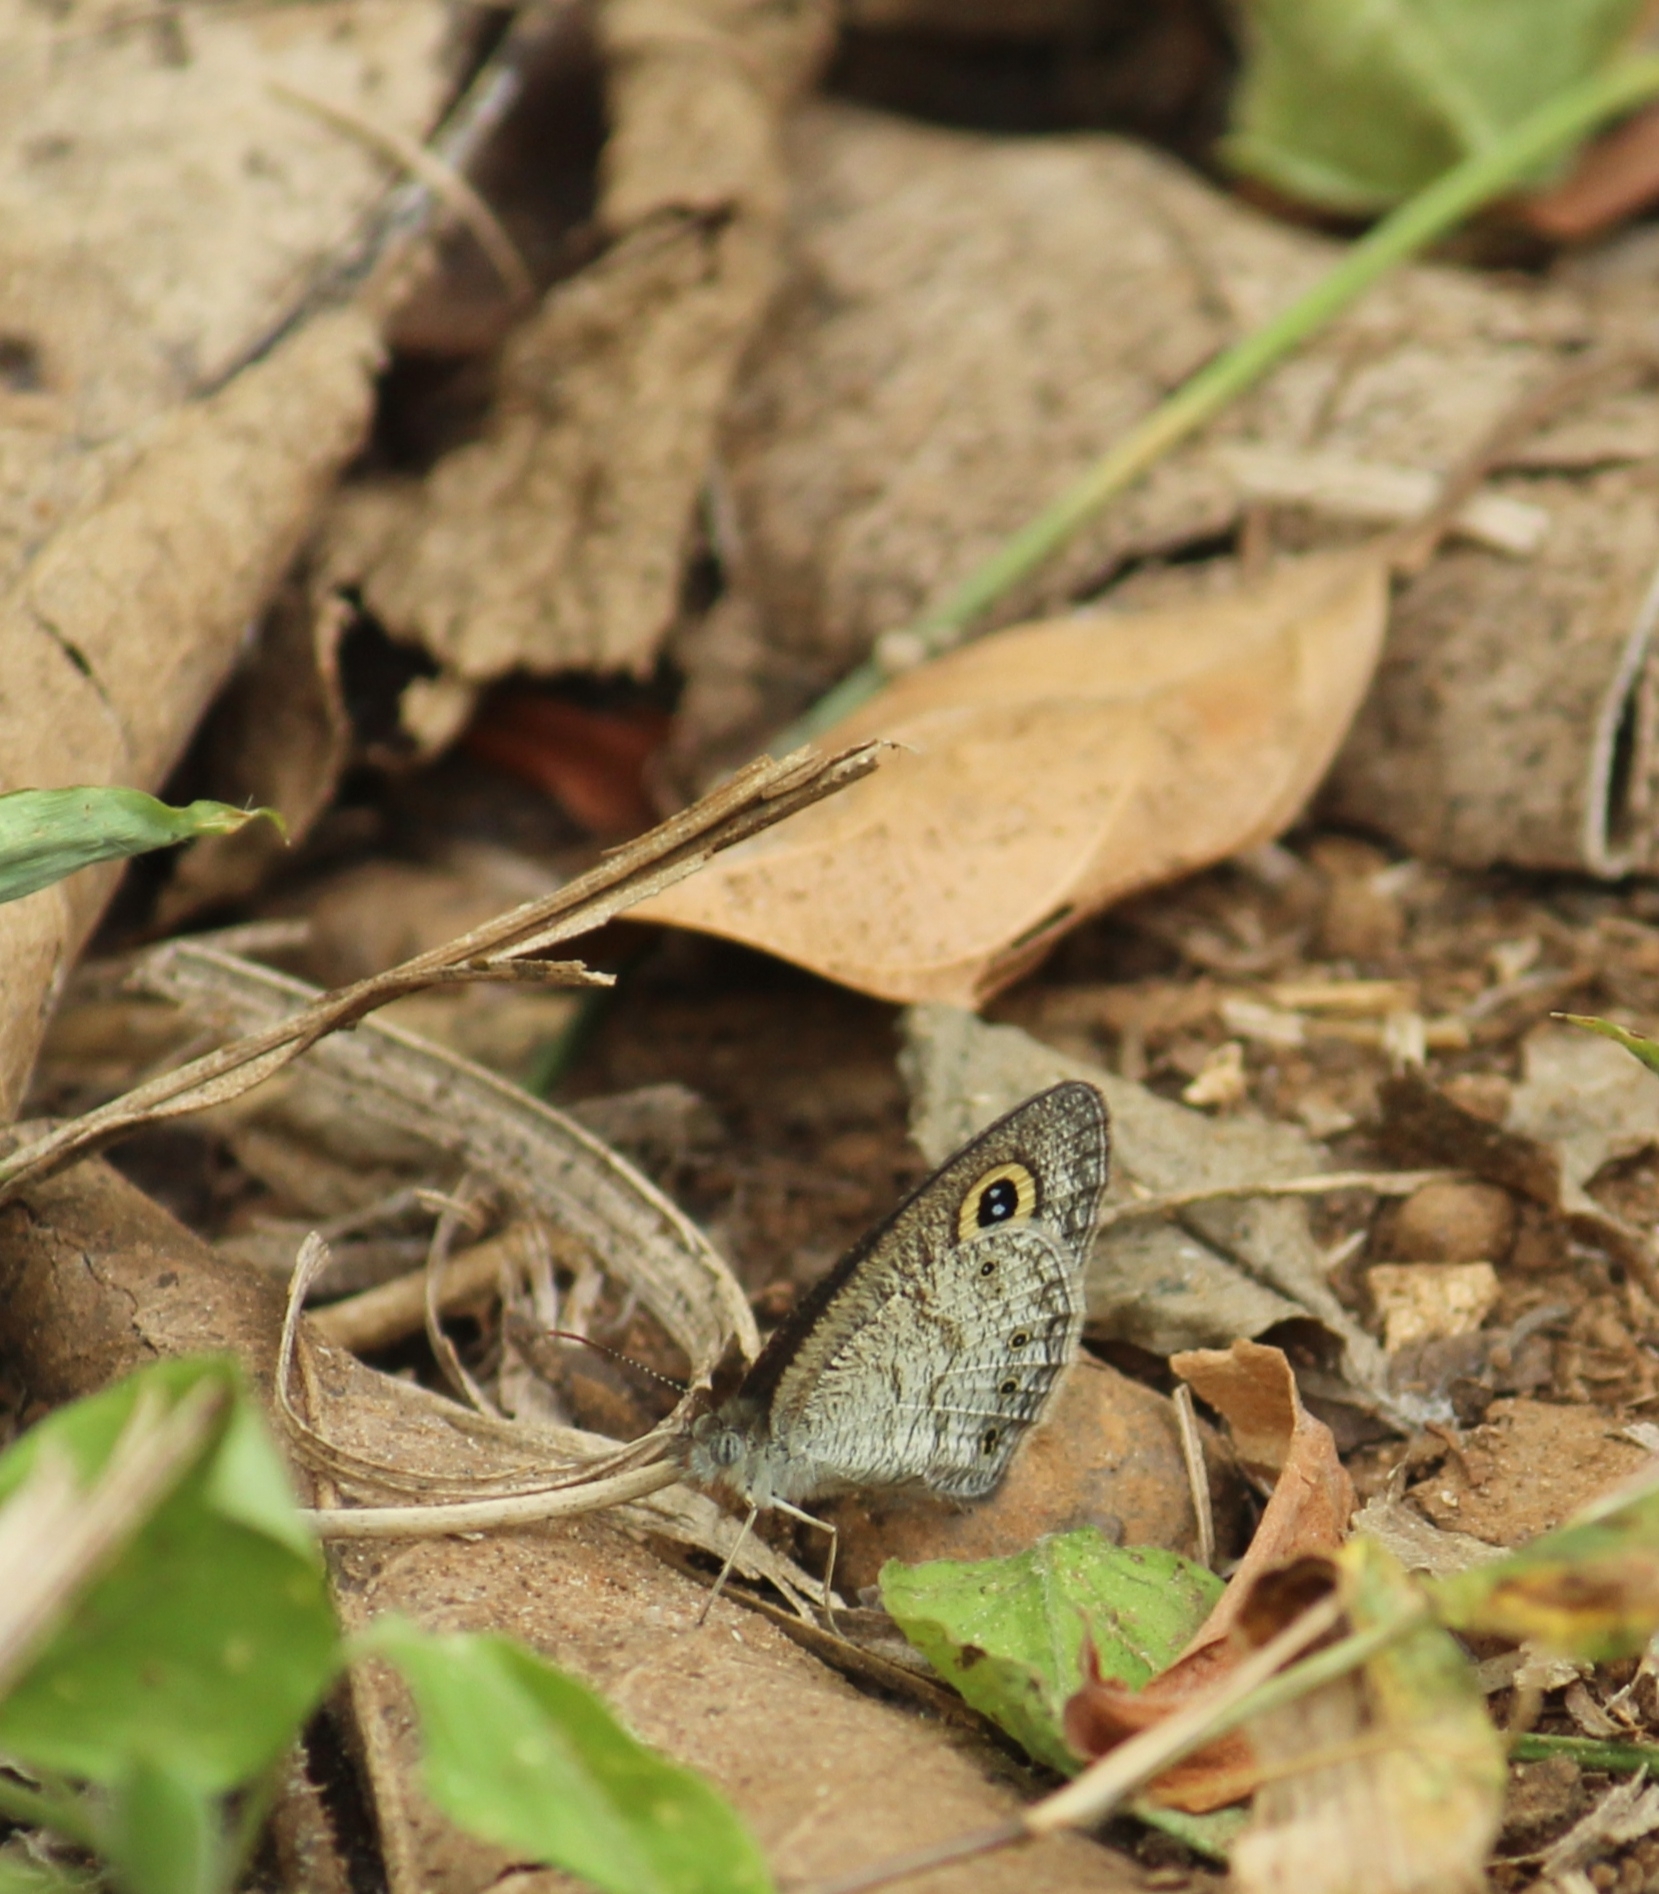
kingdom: Animalia
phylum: Arthropoda
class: Insecta
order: Lepidoptera
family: Nymphalidae
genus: Ypthima
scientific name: Ypthima huebneri
